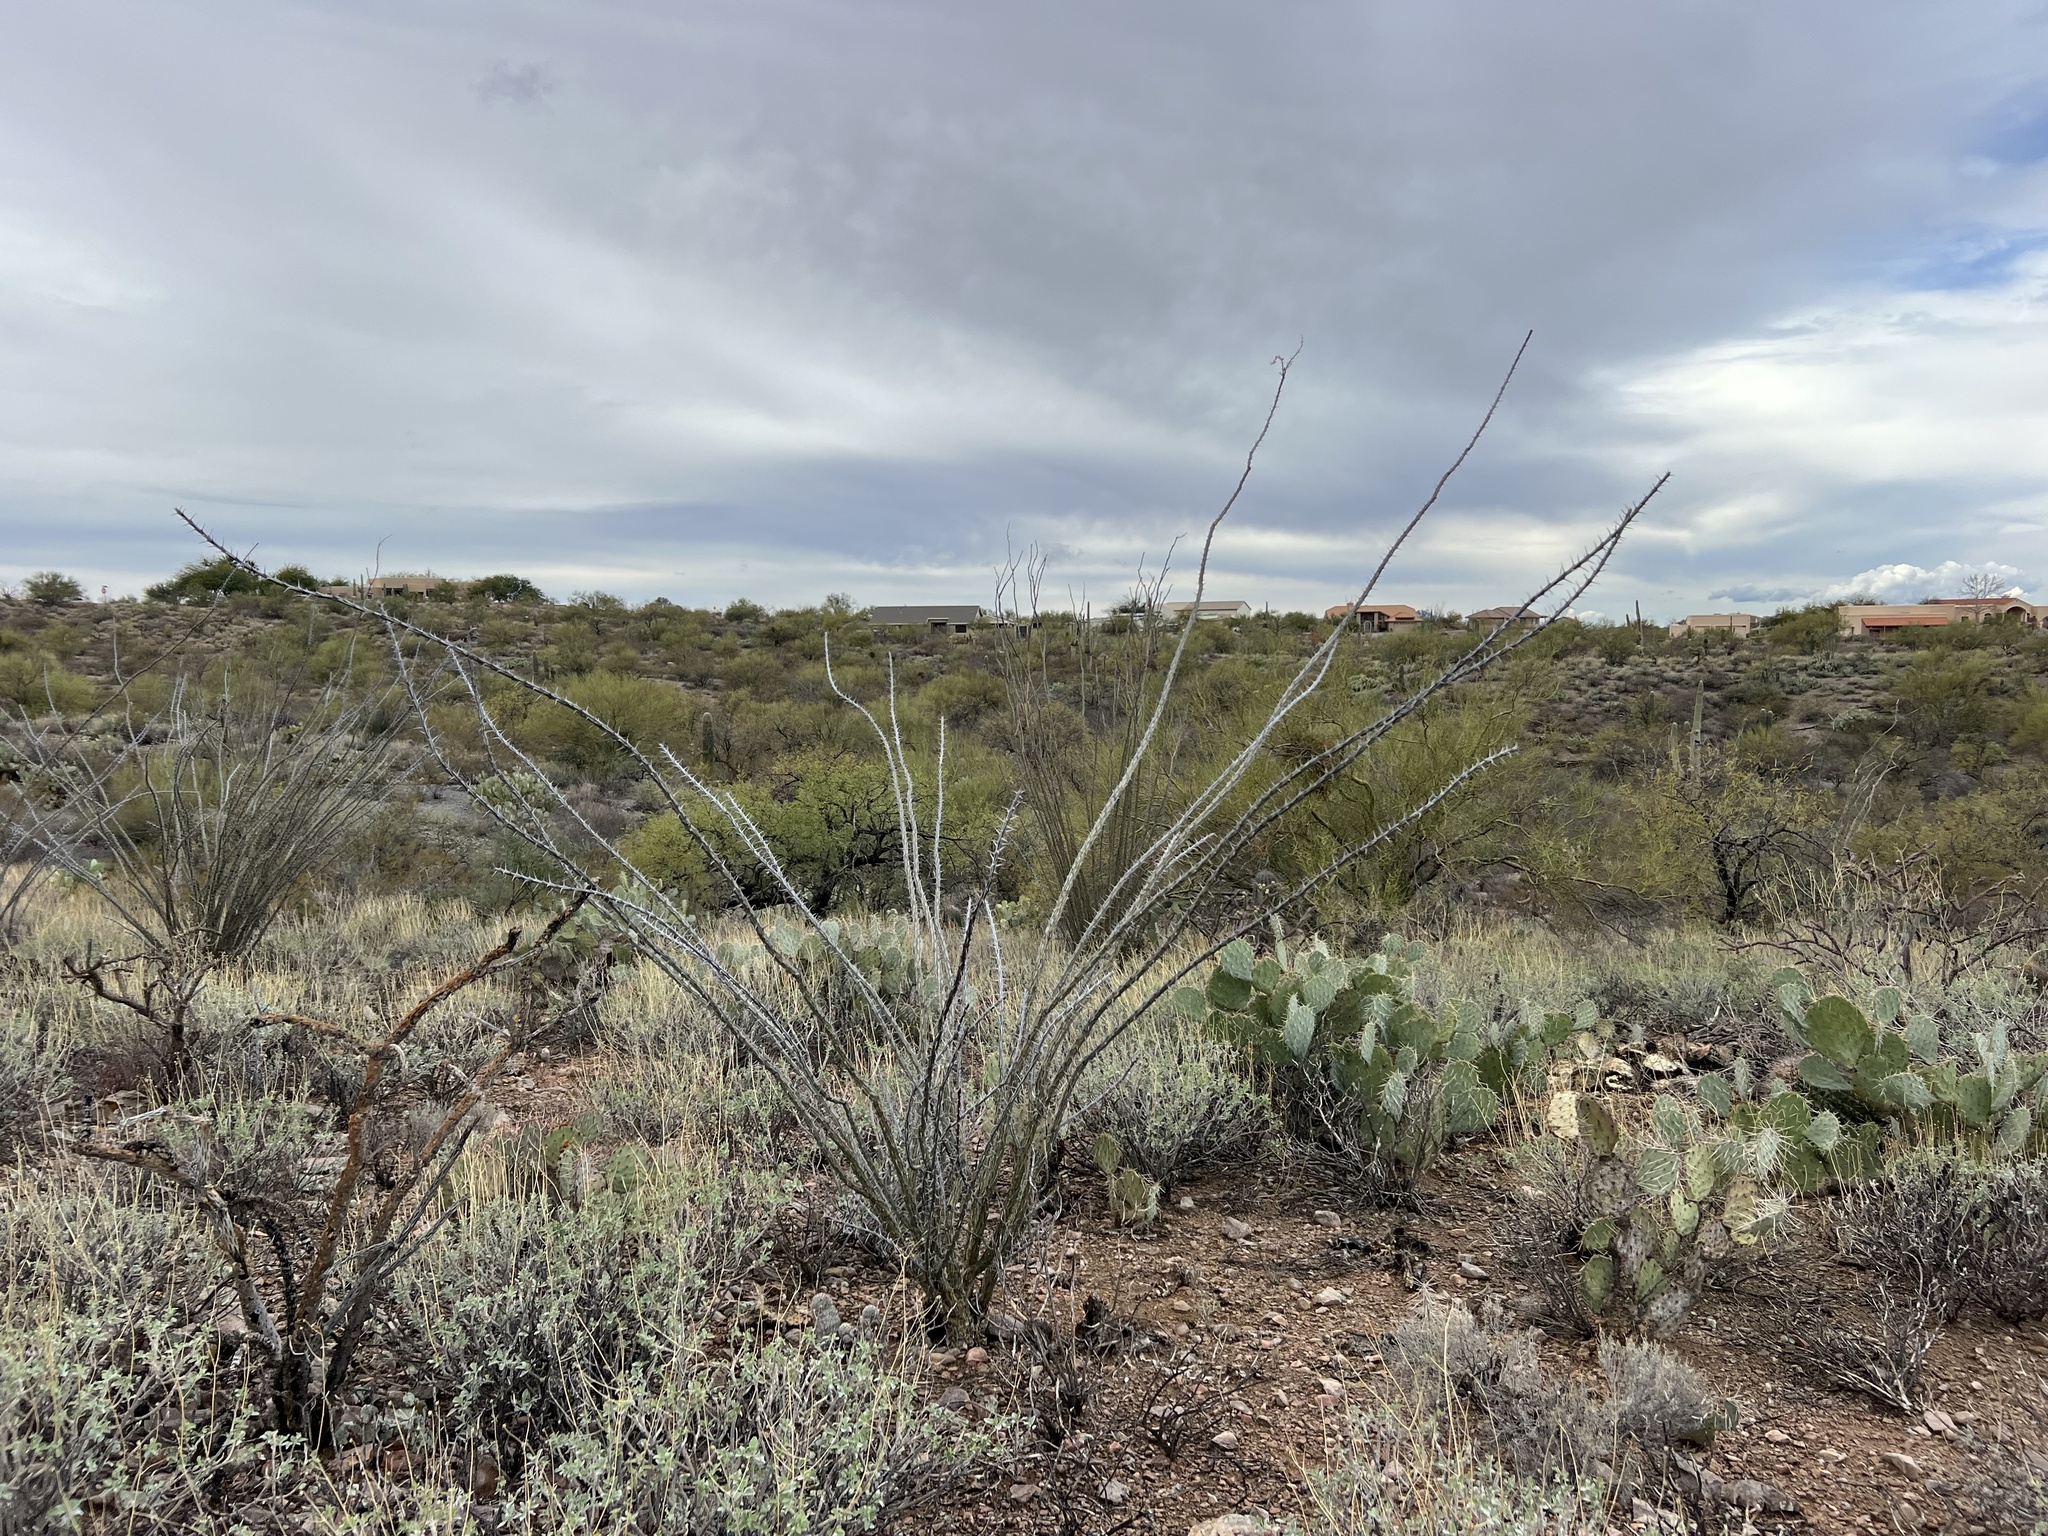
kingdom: Plantae
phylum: Tracheophyta
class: Magnoliopsida
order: Ericales
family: Fouquieriaceae
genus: Fouquieria
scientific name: Fouquieria splendens
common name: Vine-cactus
